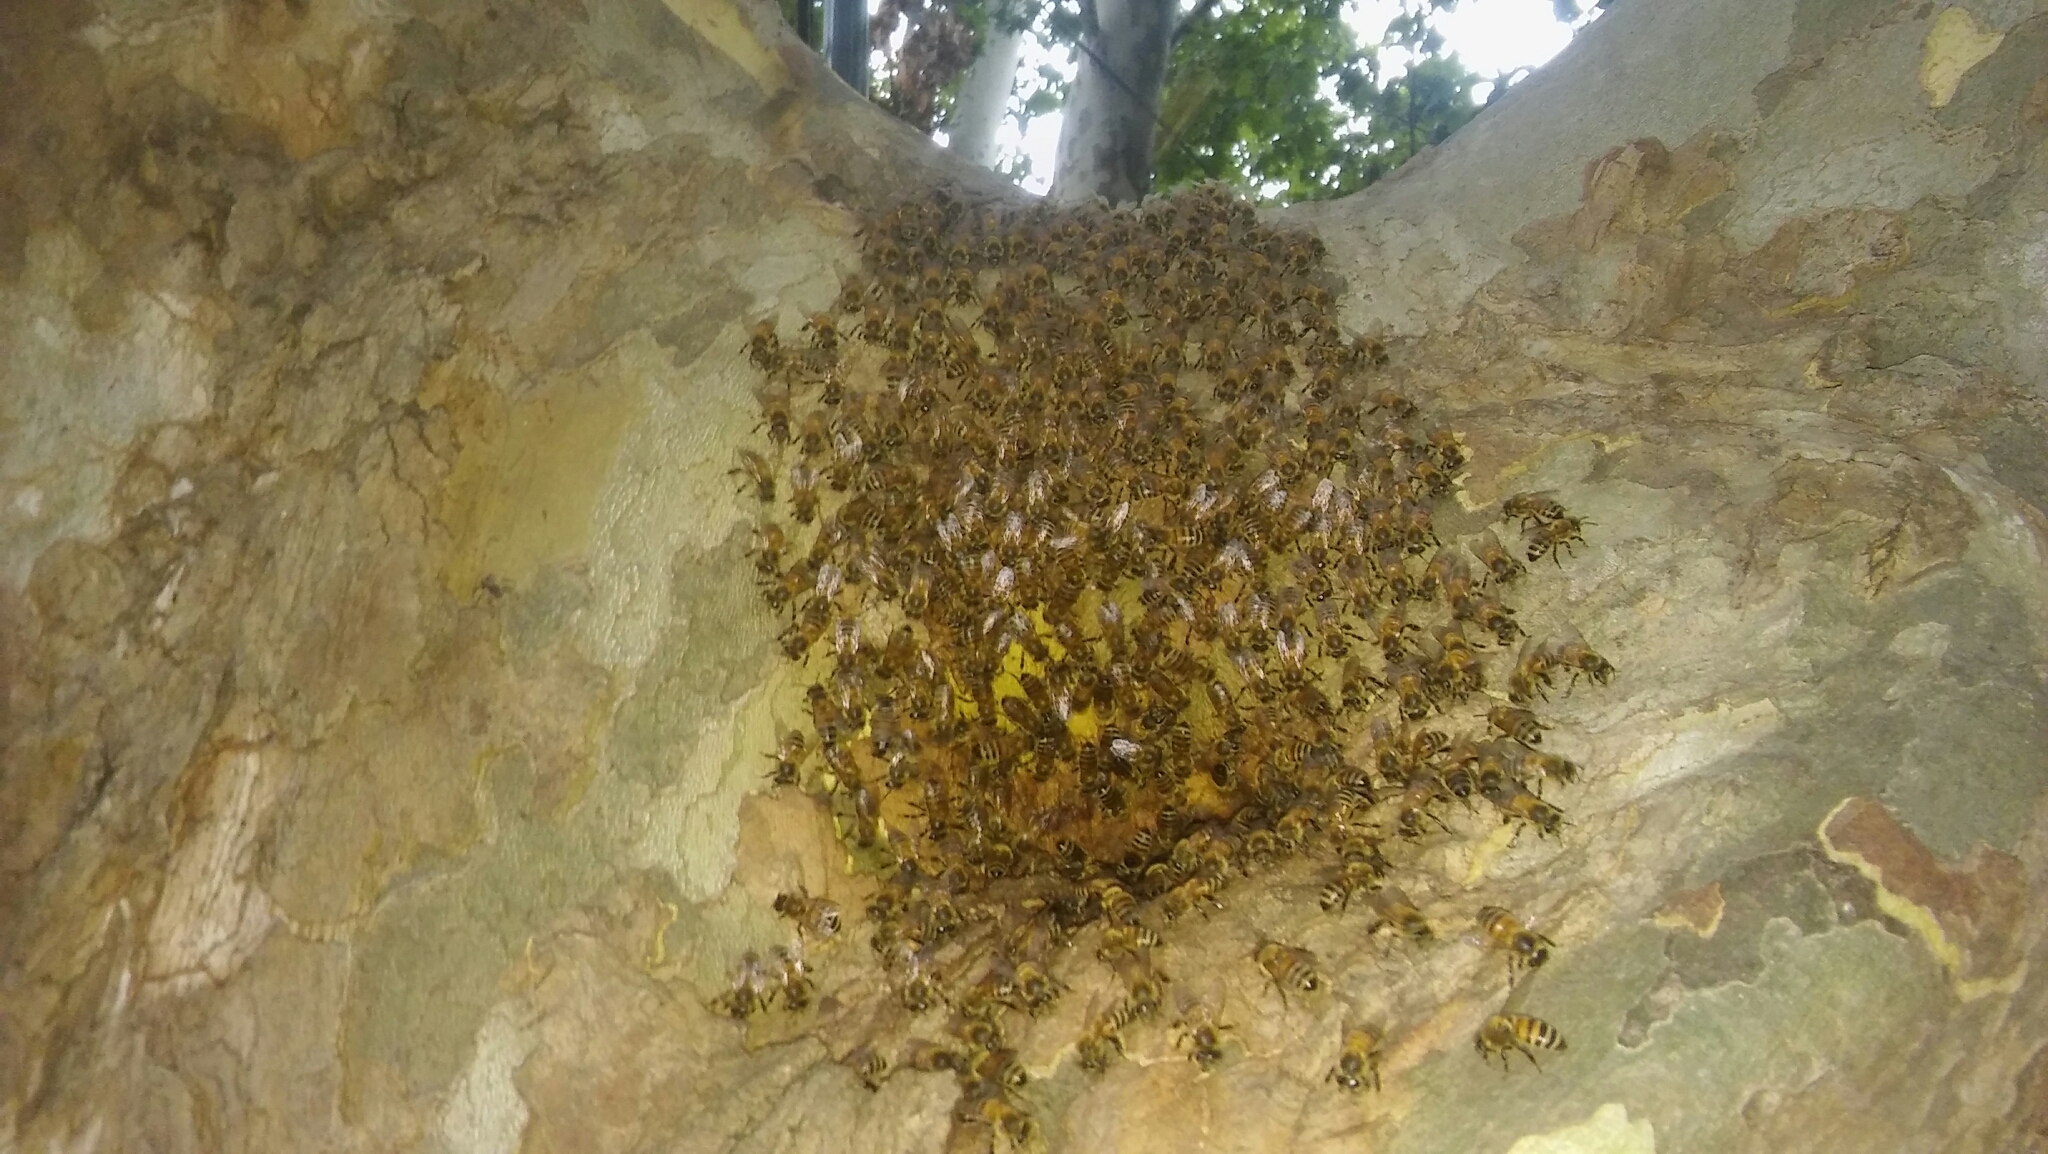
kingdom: Animalia
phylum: Arthropoda
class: Insecta
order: Hymenoptera
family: Apidae
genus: Apis
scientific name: Apis mellifera
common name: Honey bee
